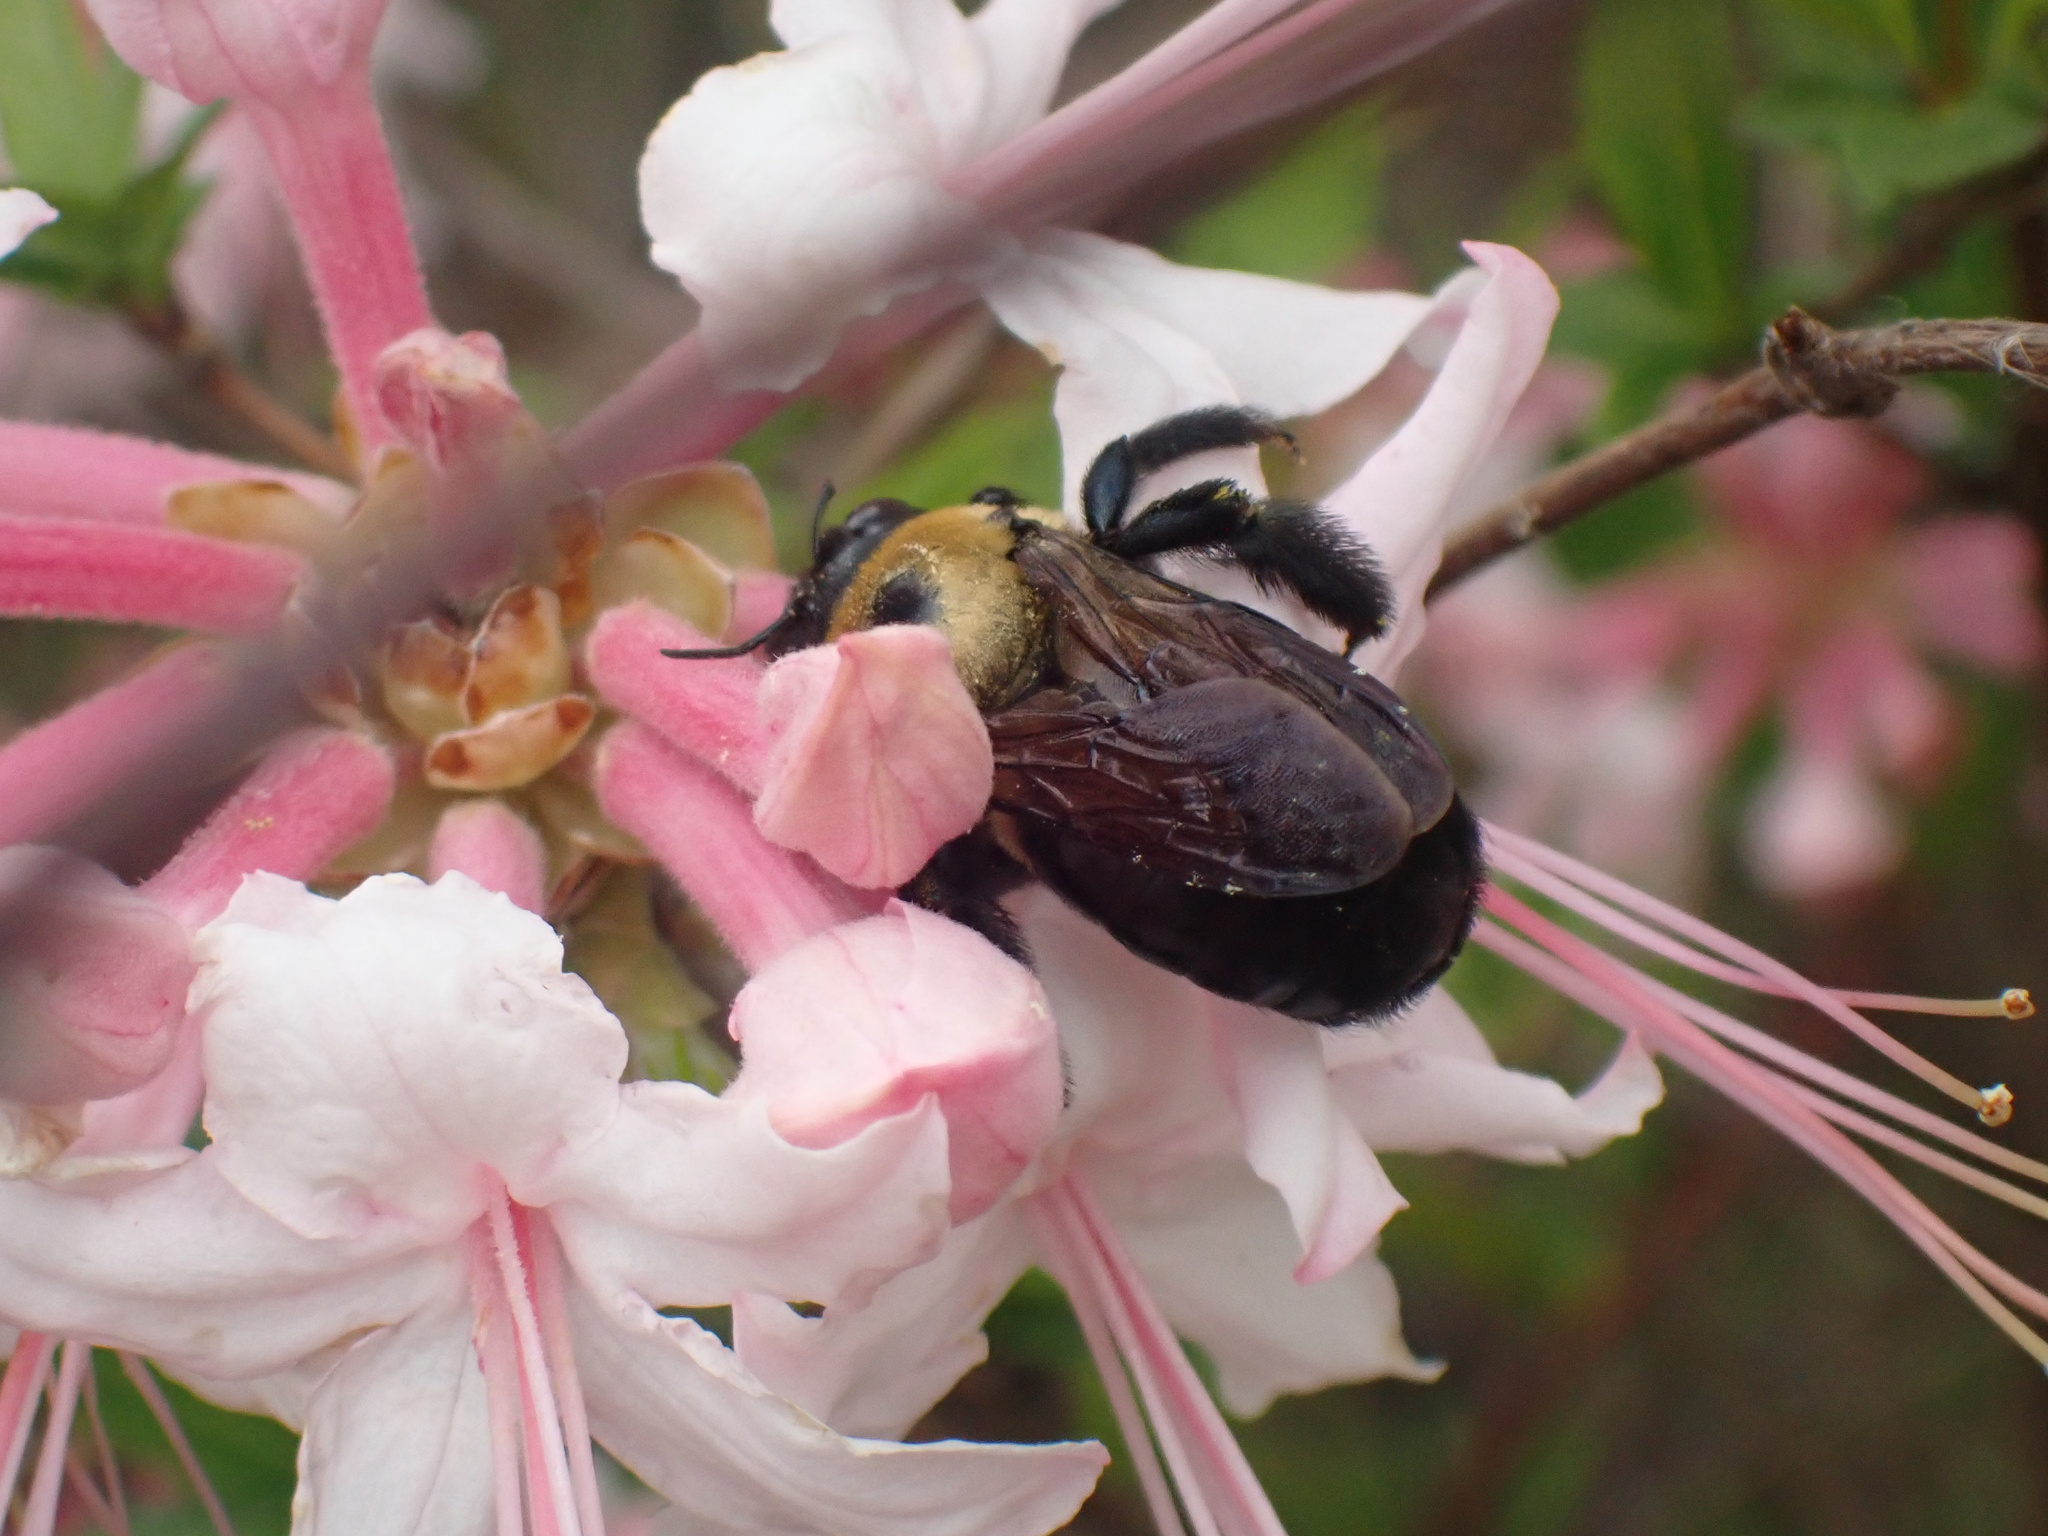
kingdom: Animalia
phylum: Arthropoda
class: Insecta
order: Hymenoptera
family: Apidae
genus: Xylocopa
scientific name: Xylocopa virginica
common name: Carpenter bee
